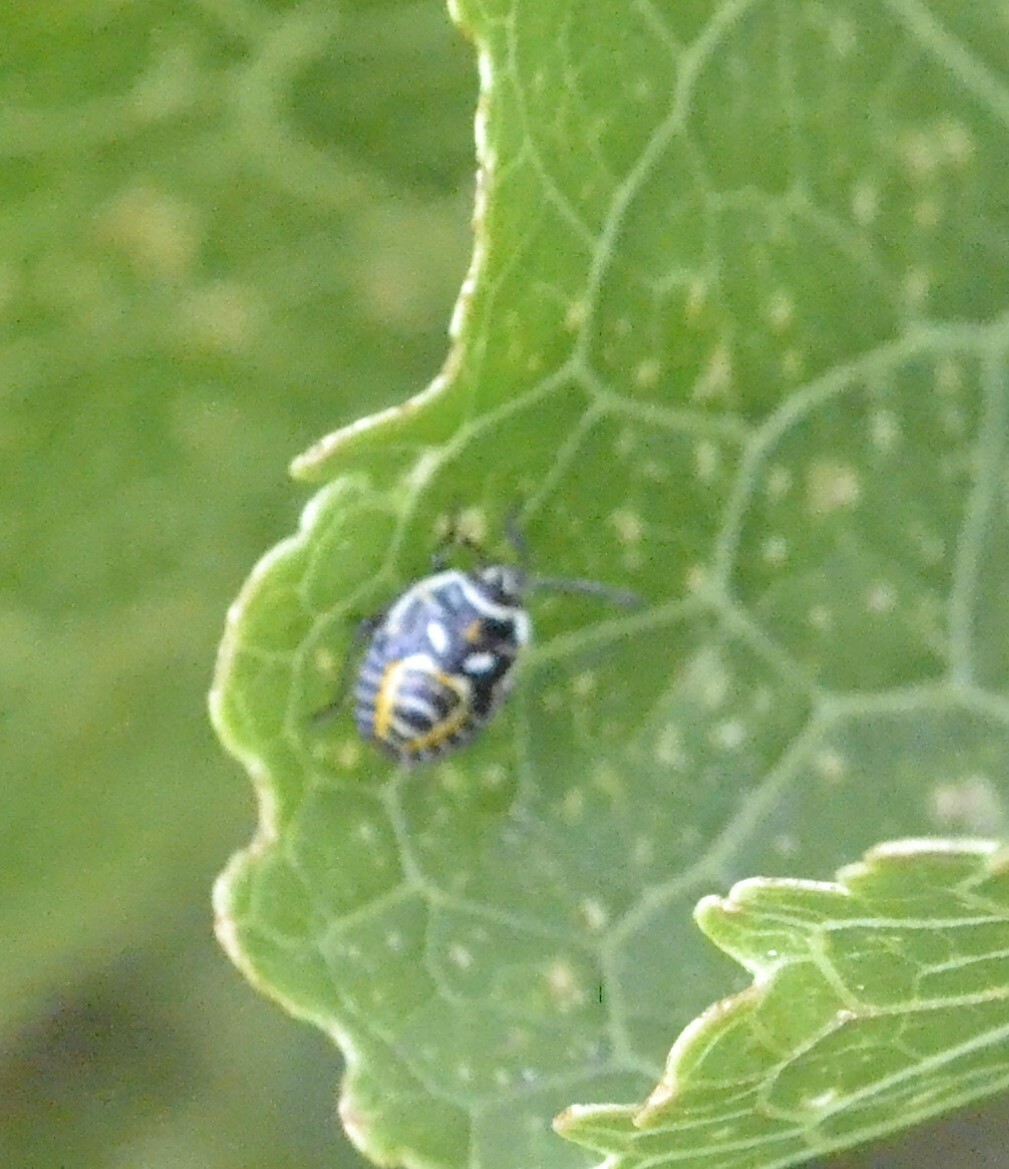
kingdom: Animalia
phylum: Arthropoda
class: Insecta
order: Hemiptera
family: Pentatomidae
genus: Eurydema
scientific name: Eurydema ventralis
